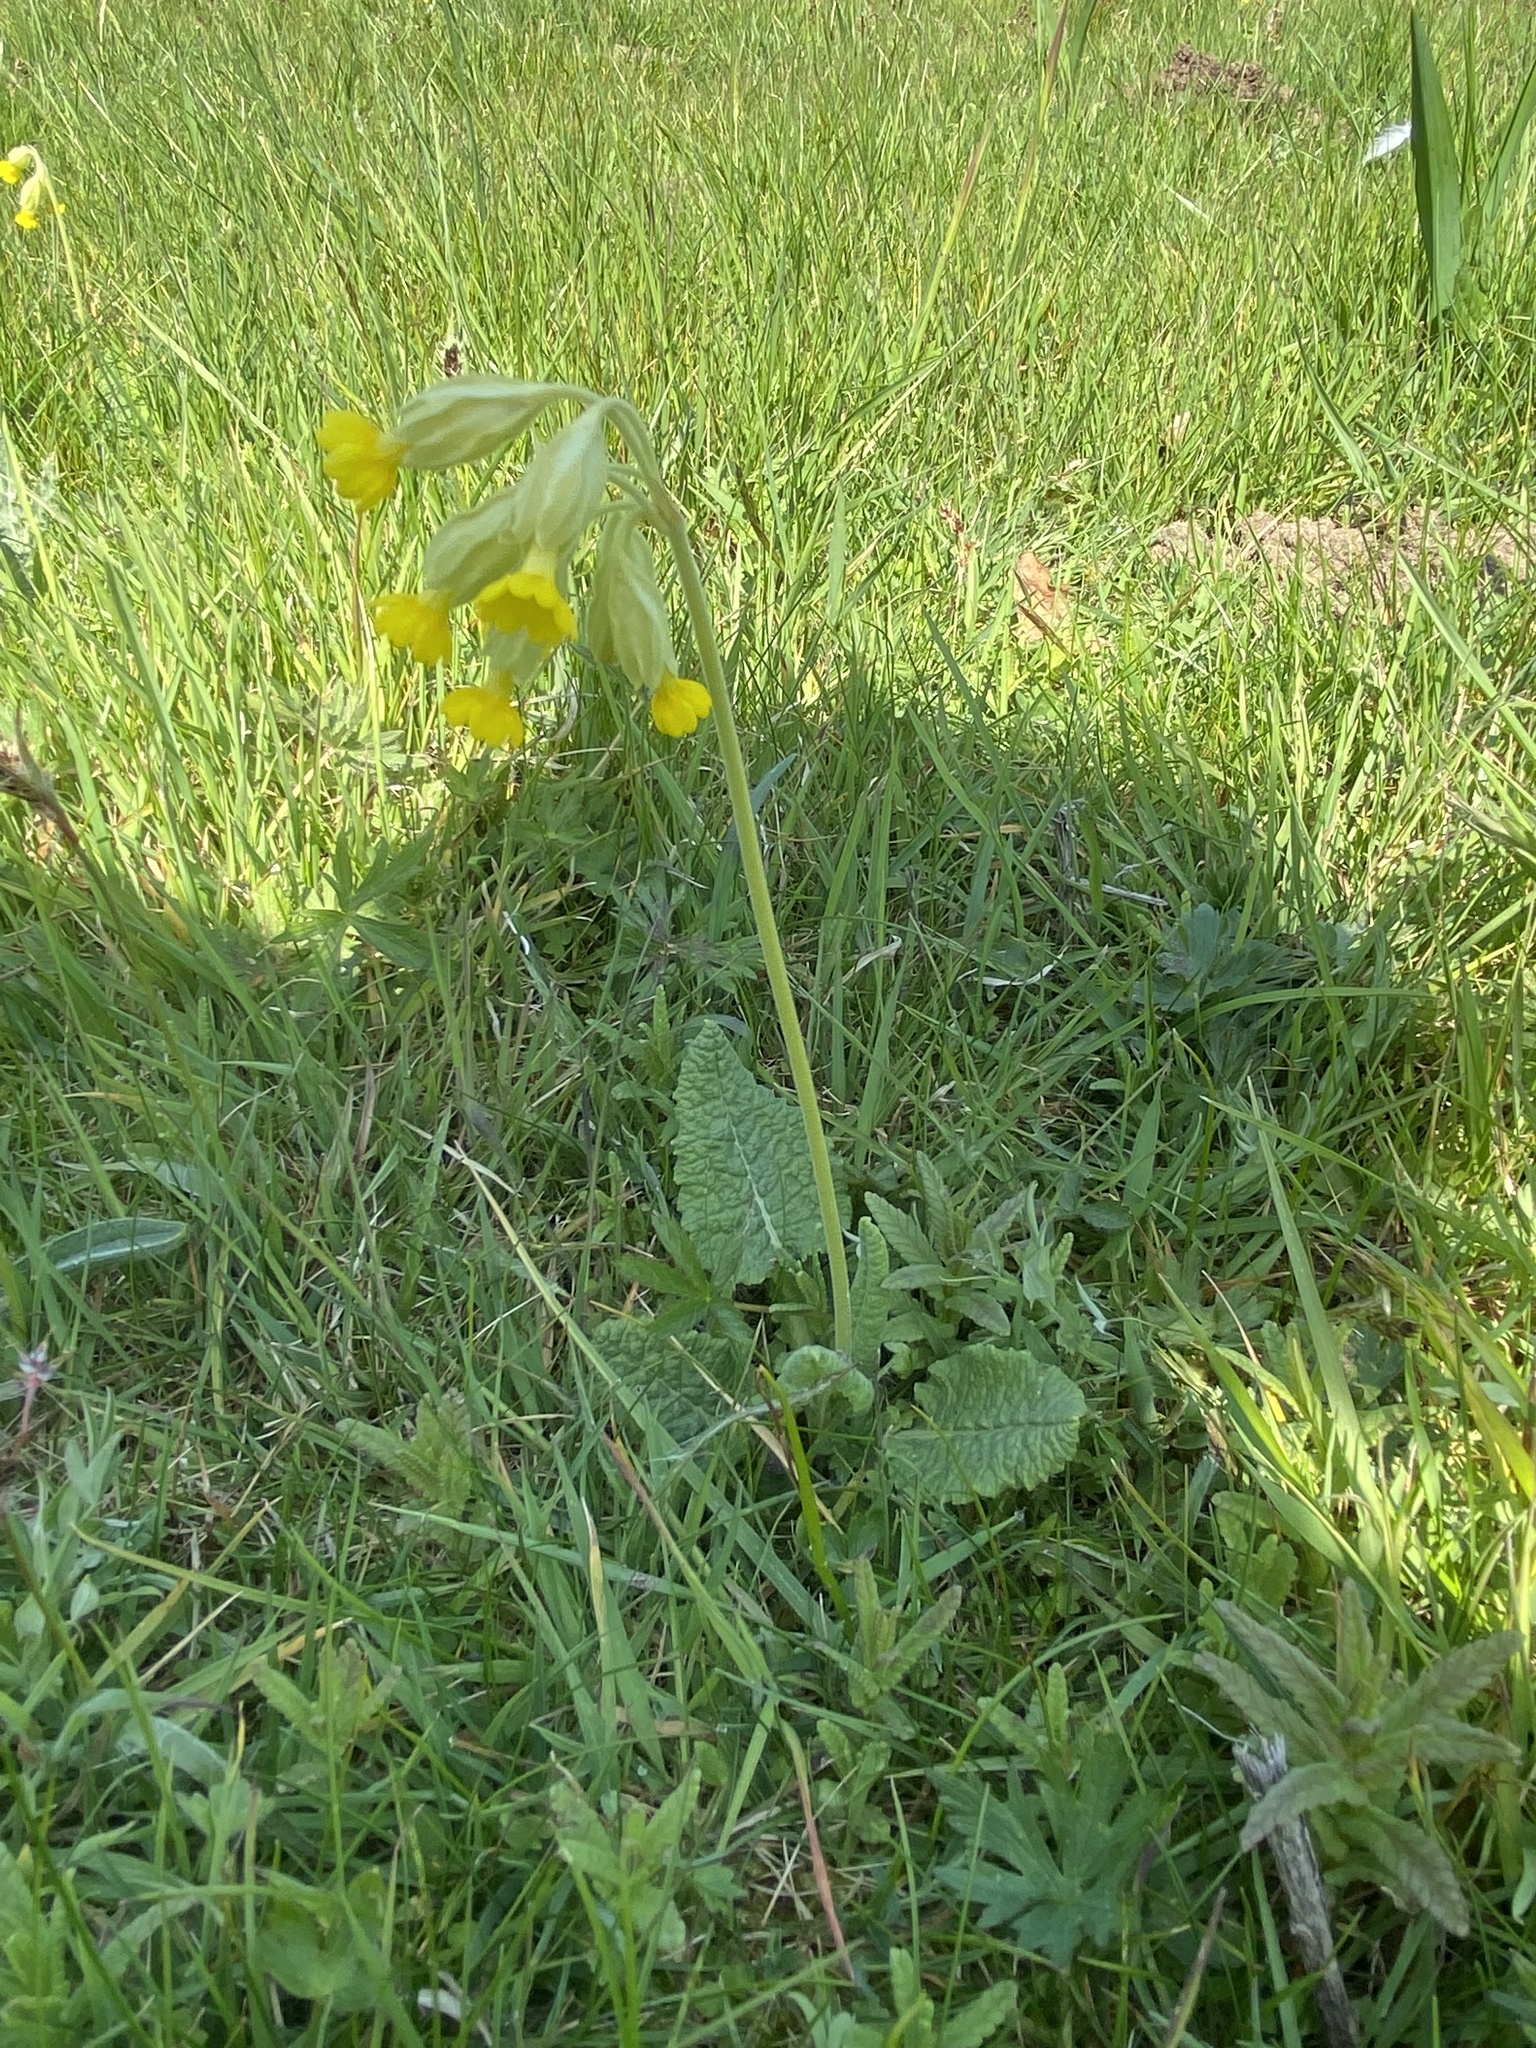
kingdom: Plantae
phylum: Tracheophyta
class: Magnoliopsida
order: Ericales
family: Primulaceae
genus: Primula
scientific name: Primula veris
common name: Cowslip
